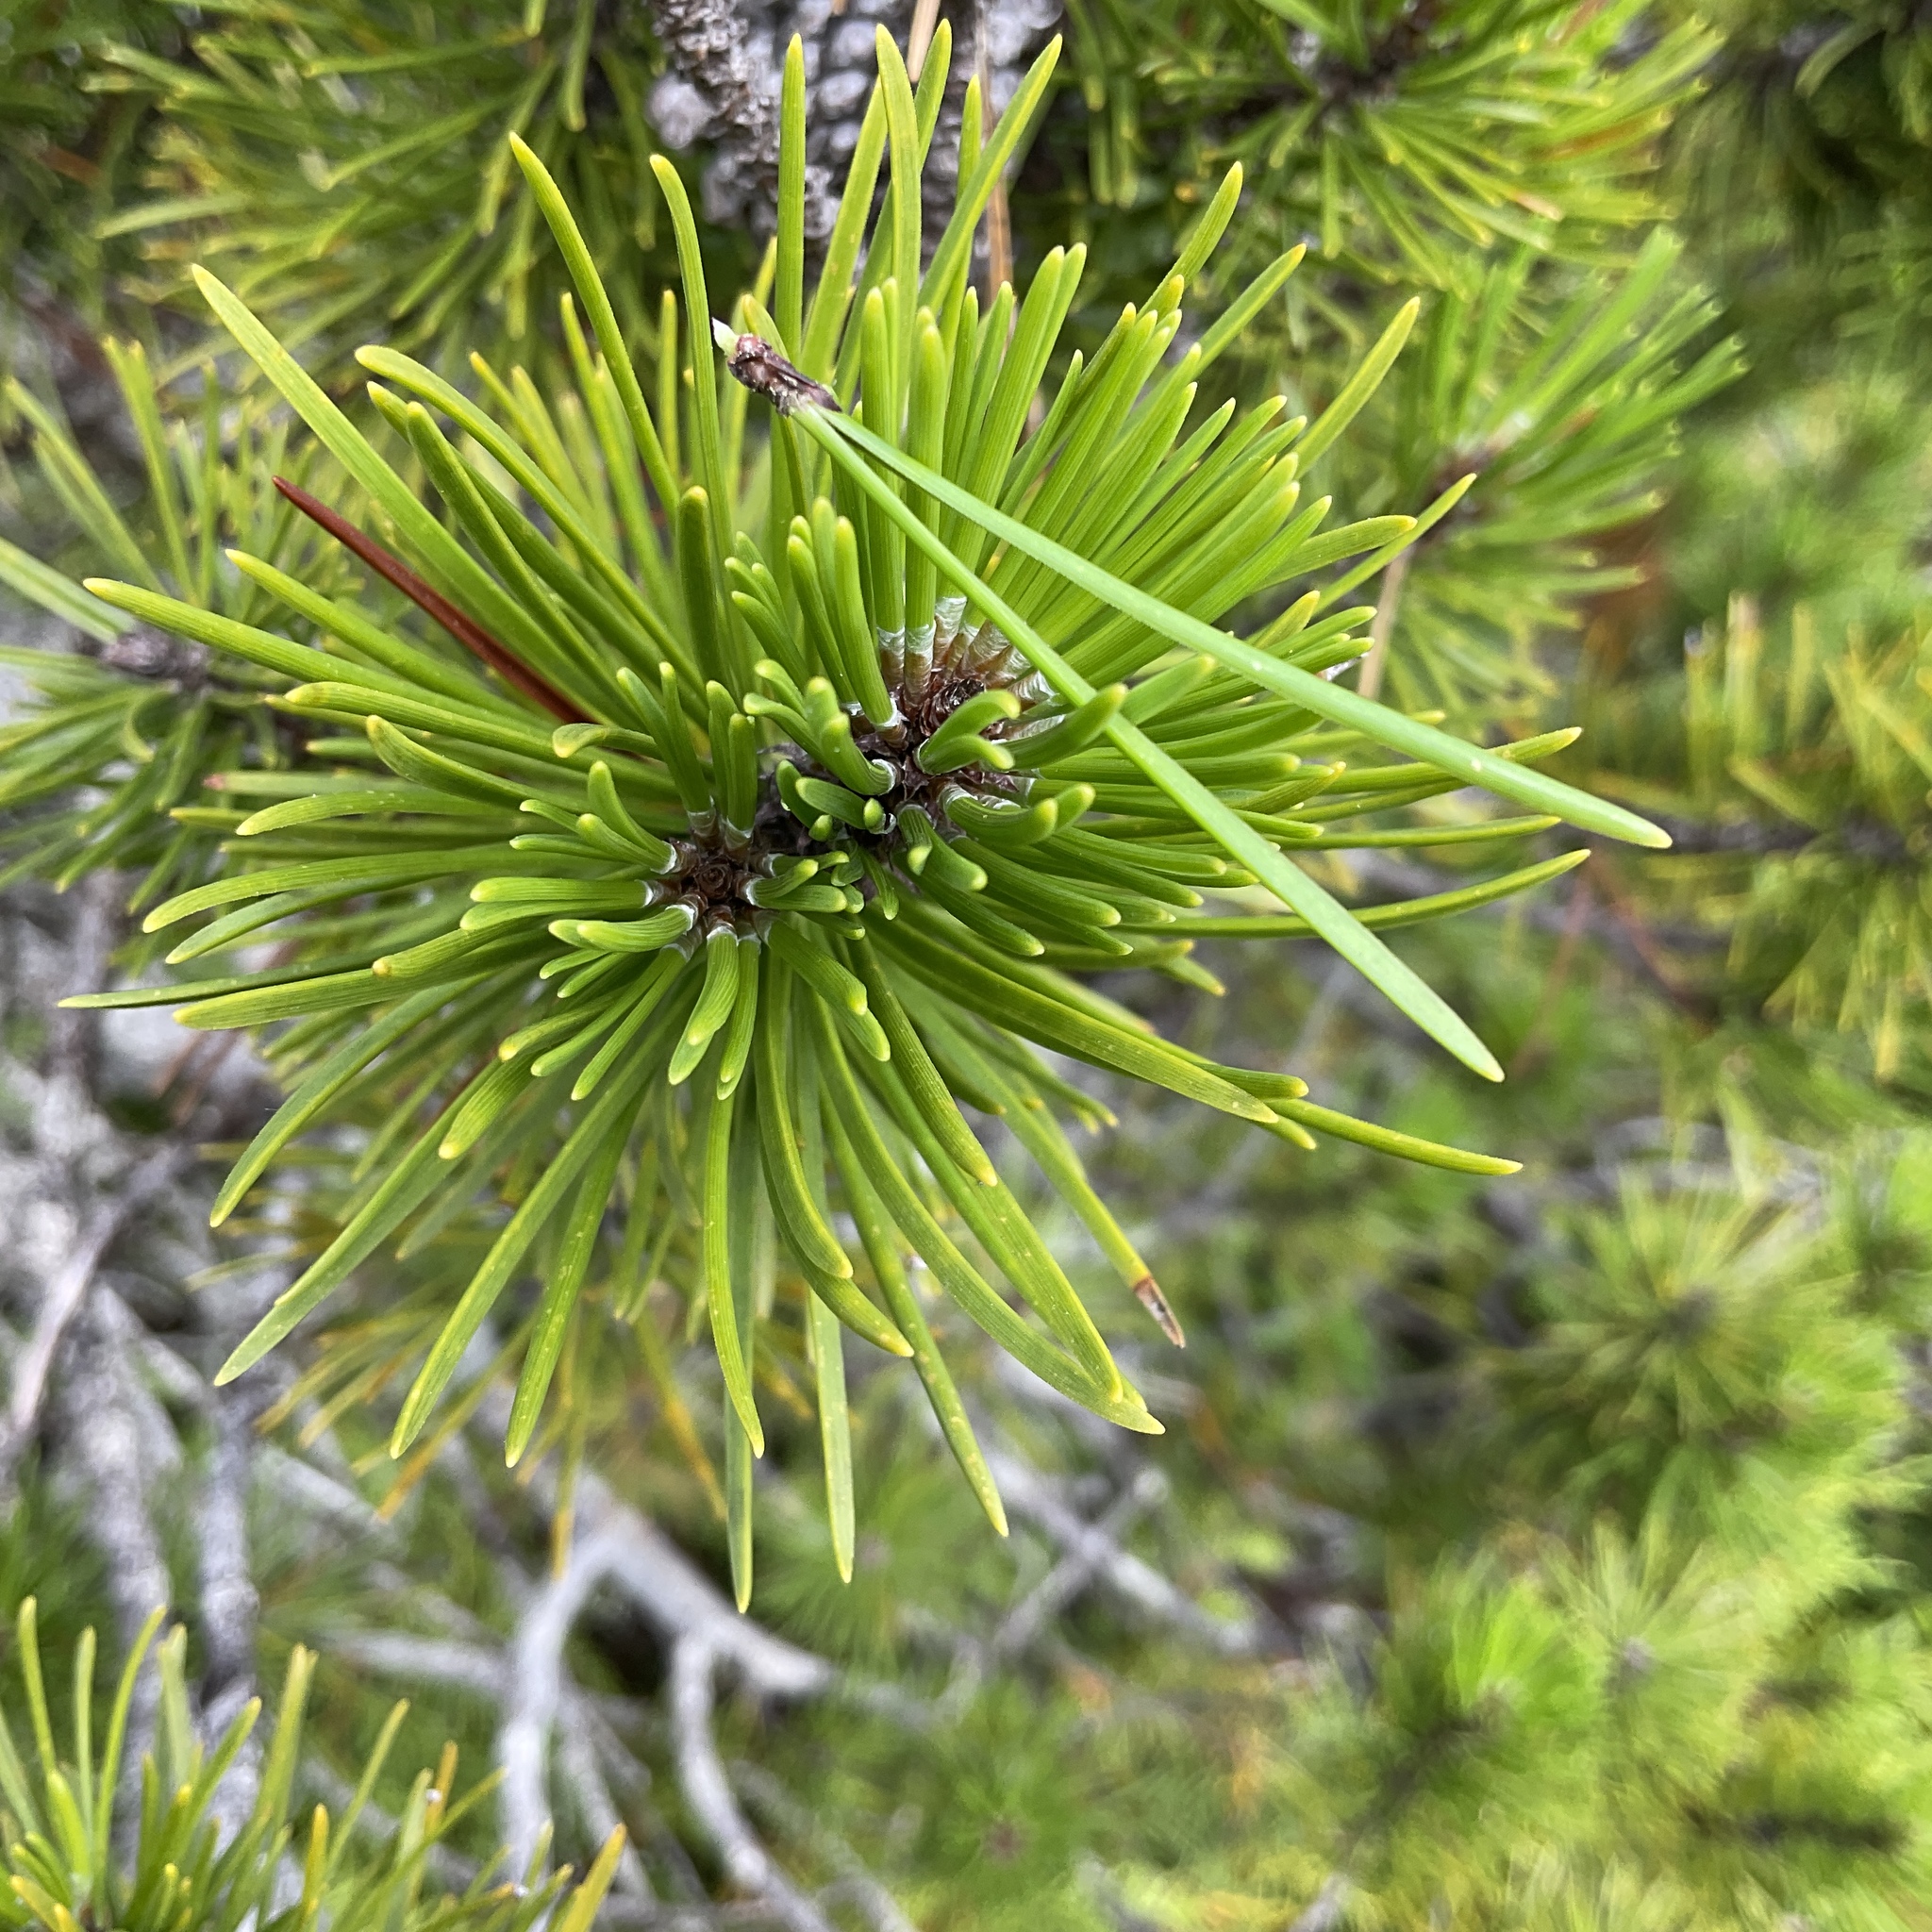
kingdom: Plantae
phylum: Tracheophyta
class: Pinopsida
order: Pinales
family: Pinaceae
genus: Pinus
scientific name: Pinus contorta
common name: Lodgepole pine
